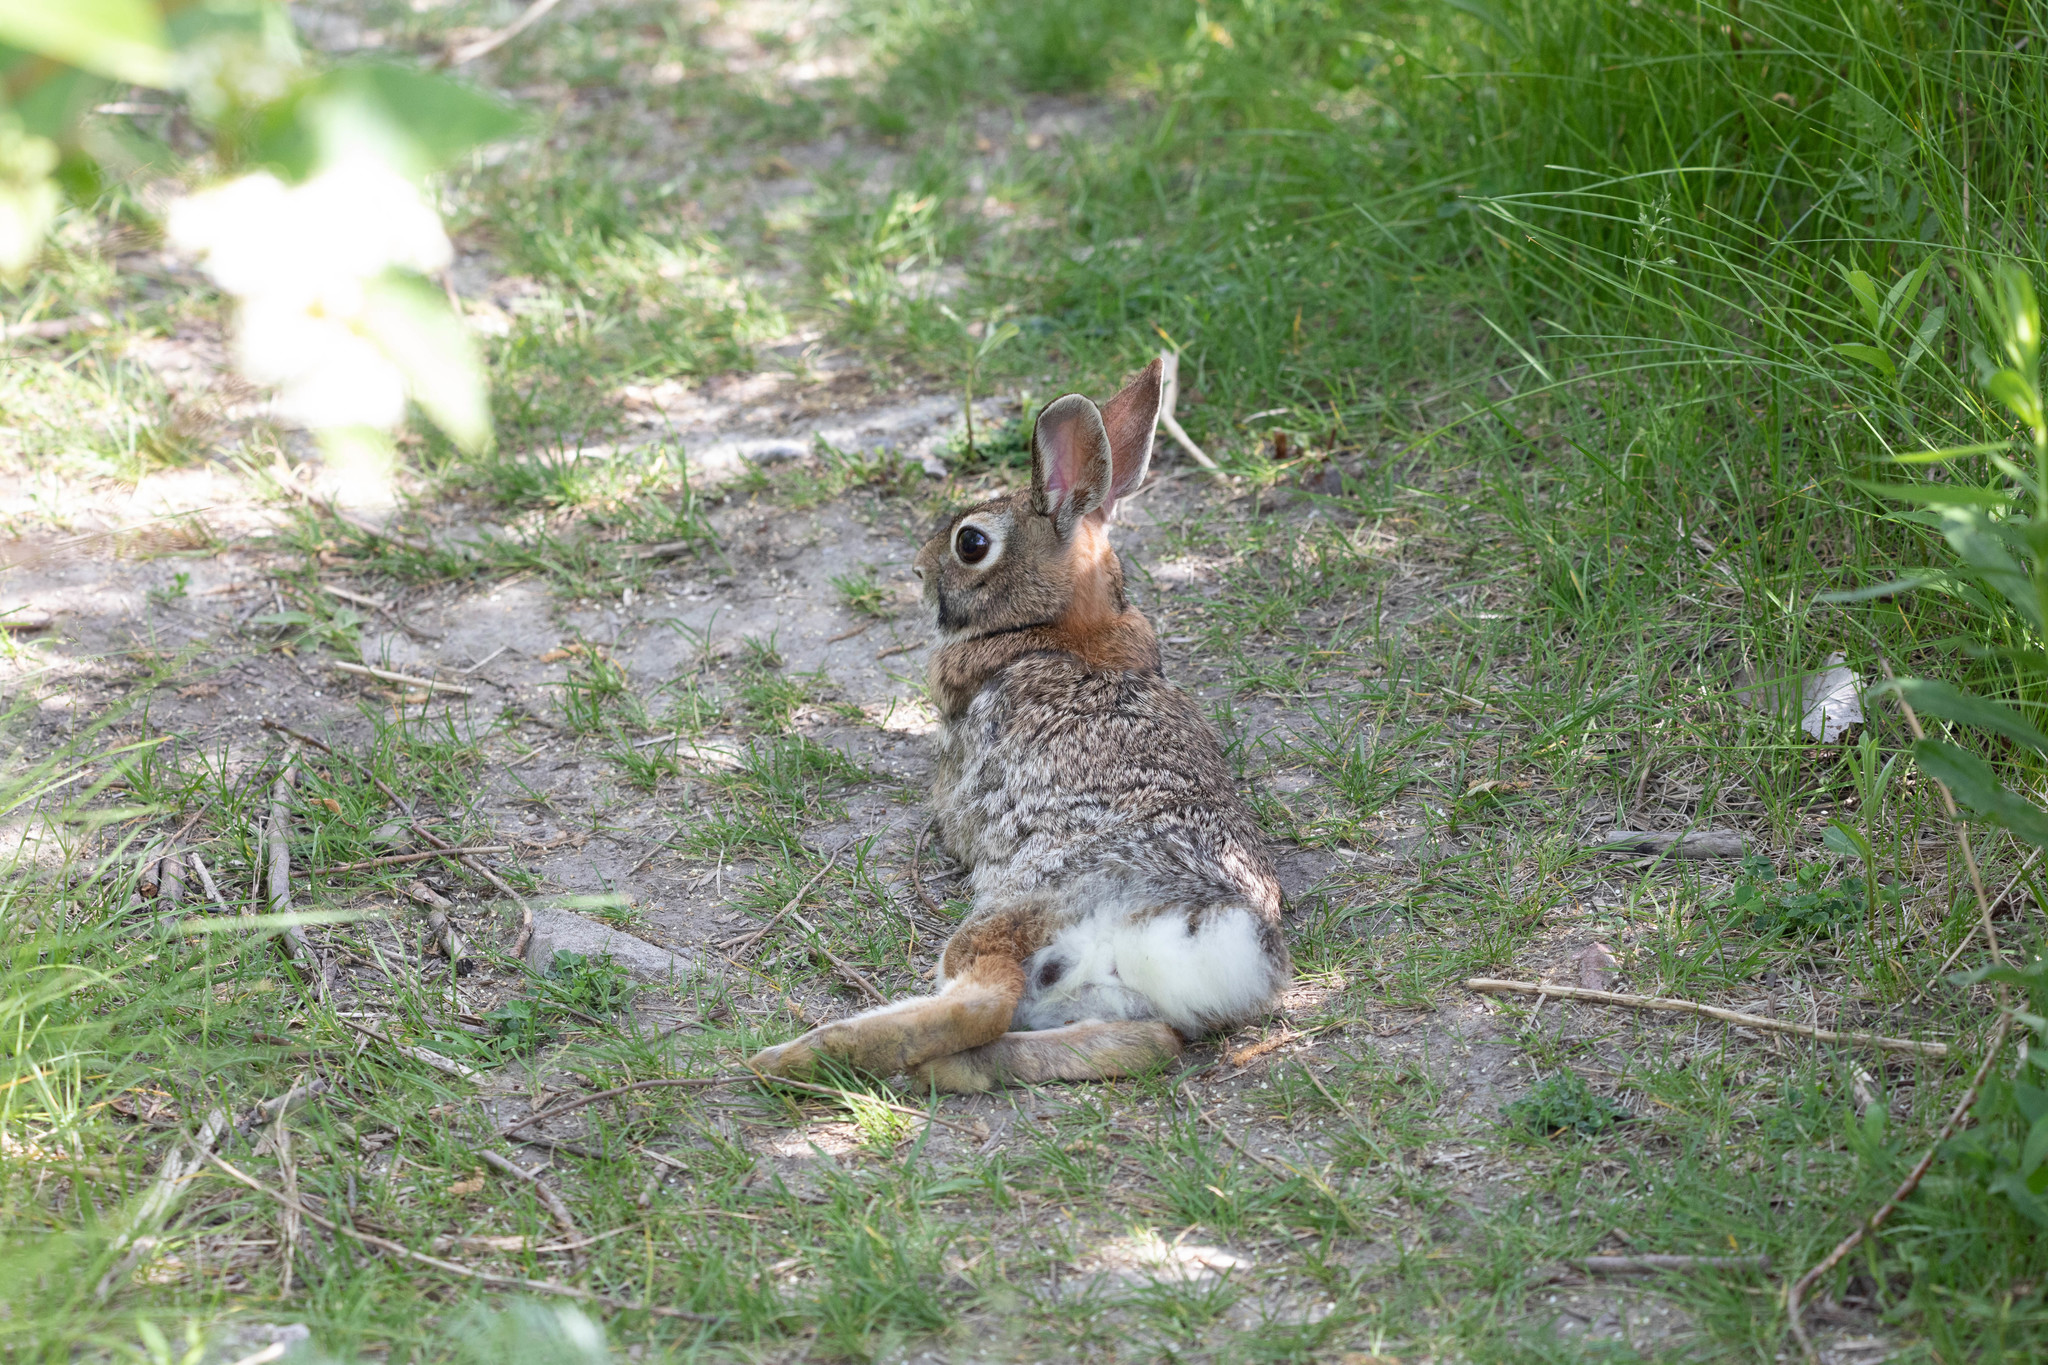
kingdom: Animalia
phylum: Chordata
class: Mammalia
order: Lagomorpha
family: Leporidae
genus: Sylvilagus
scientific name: Sylvilagus floridanus
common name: Eastern cottontail
